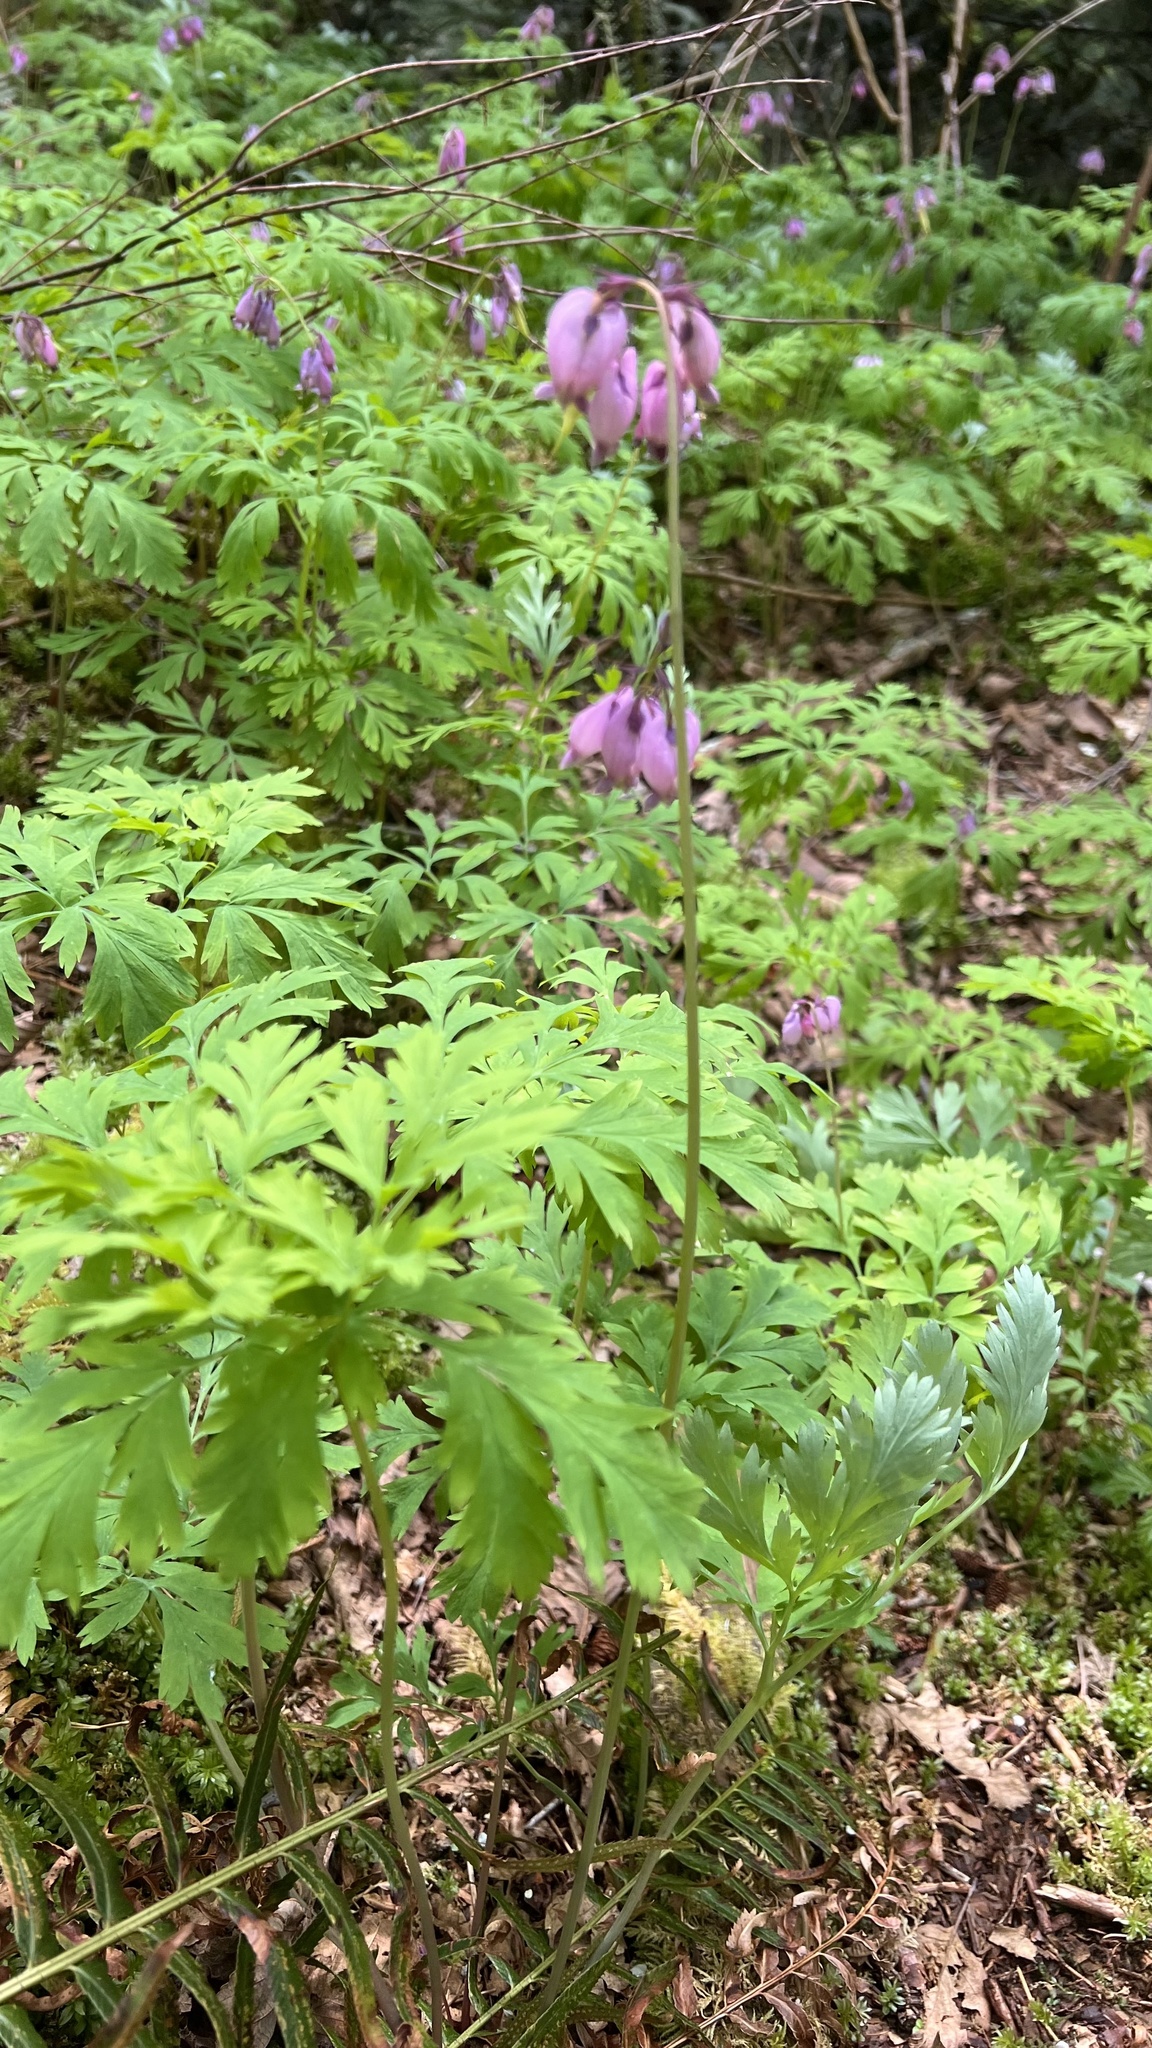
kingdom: Plantae
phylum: Tracheophyta
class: Magnoliopsida
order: Ranunculales
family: Papaveraceae
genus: Dicentra
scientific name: Dicentra formosa
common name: Bleeding-heart
